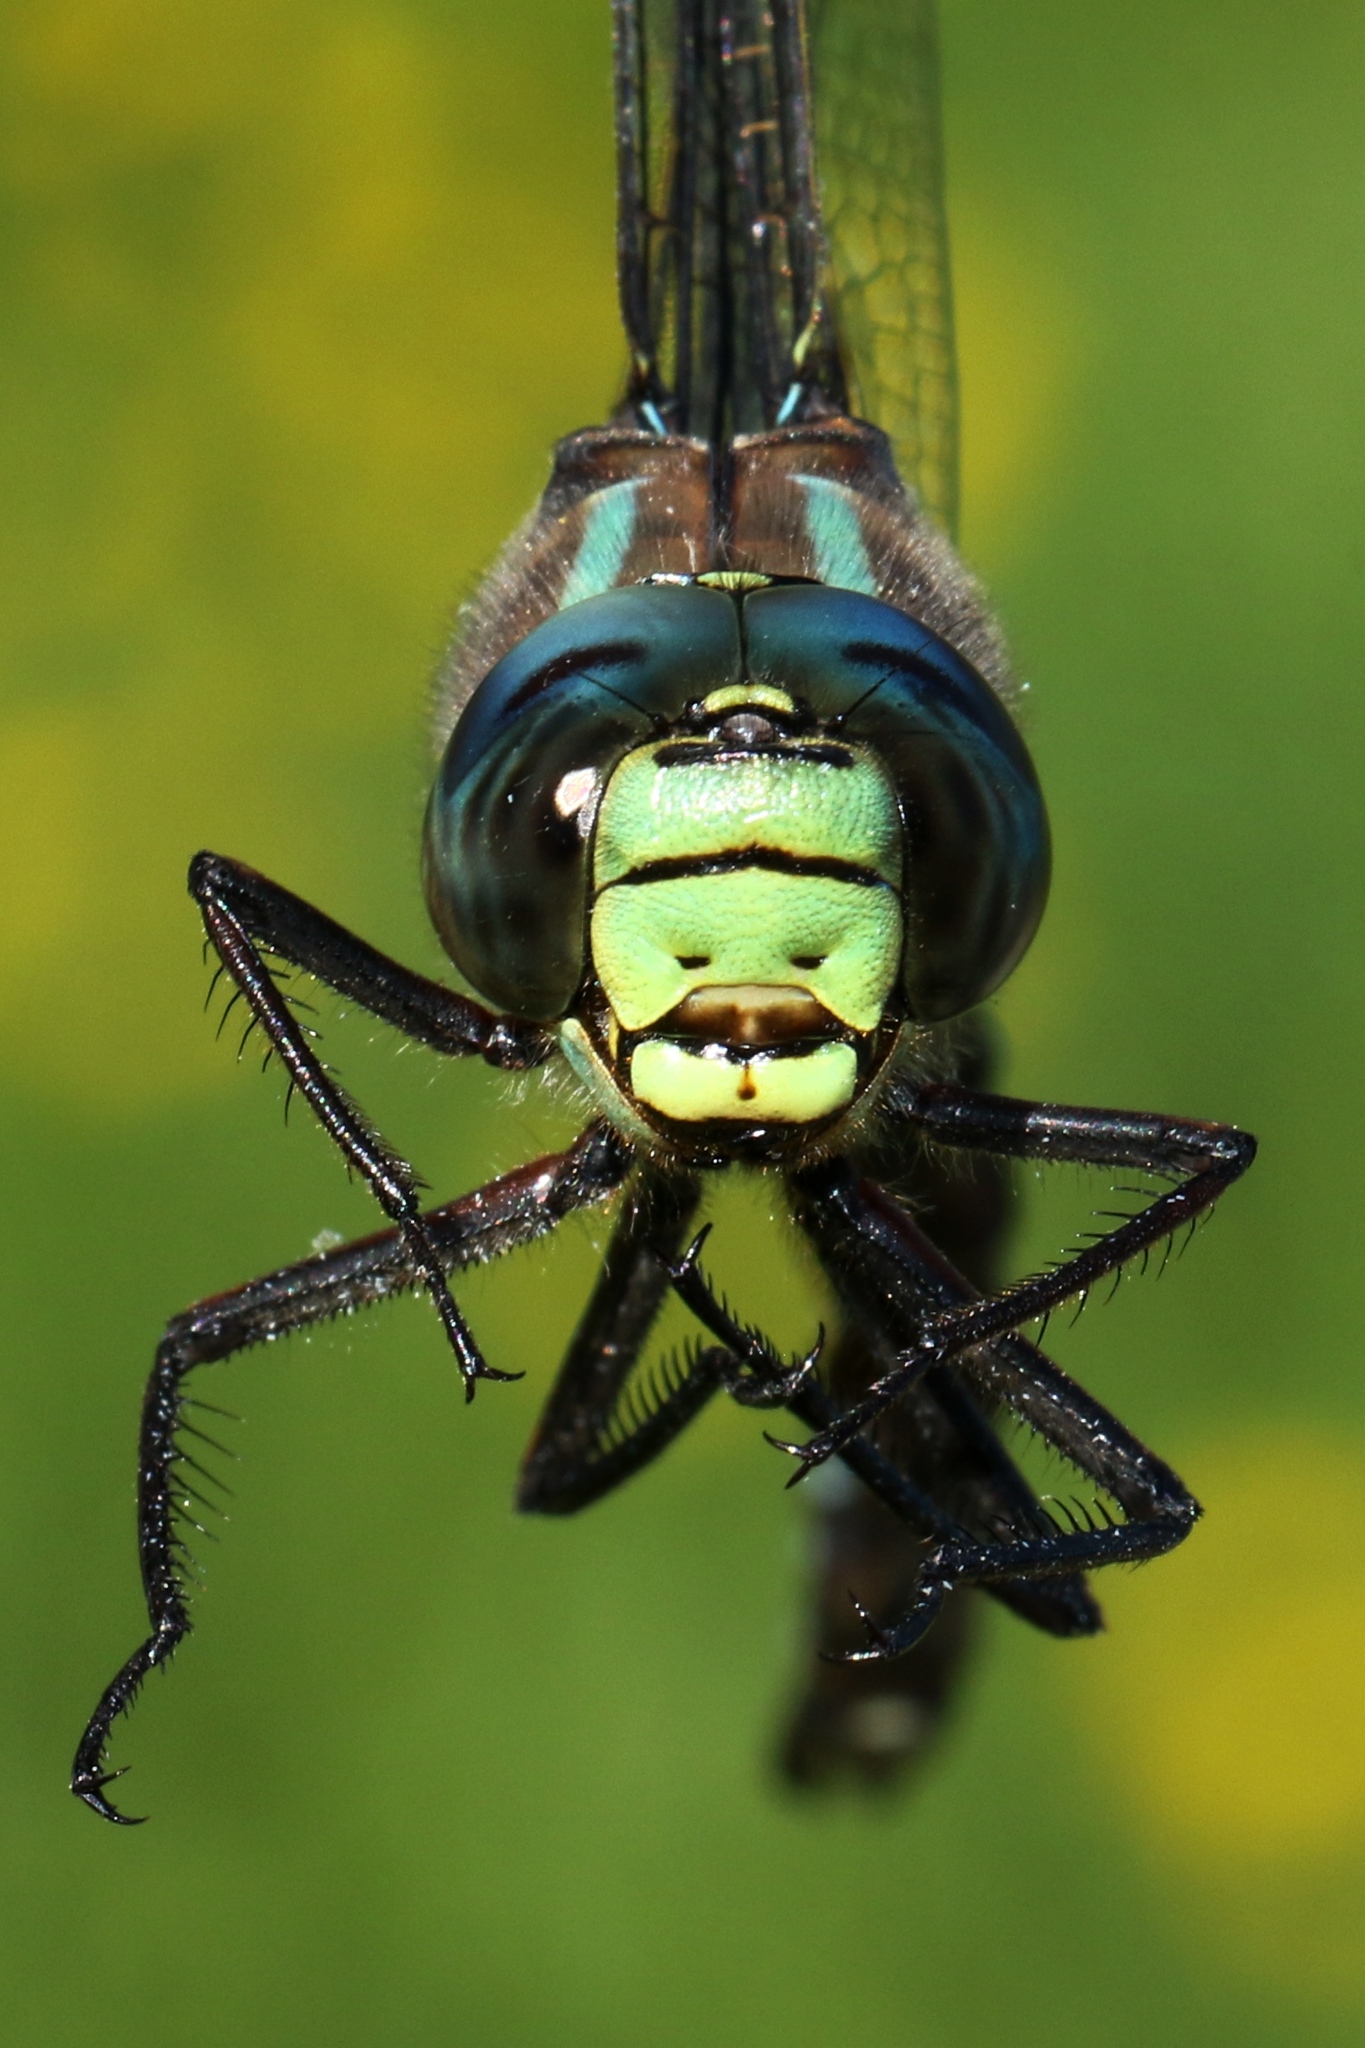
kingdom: Animalia
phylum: Arthropoda
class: Insecta
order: Odonata
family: Aeshnidae
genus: Aeshna
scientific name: Aeshna eremita
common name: Lake darner
